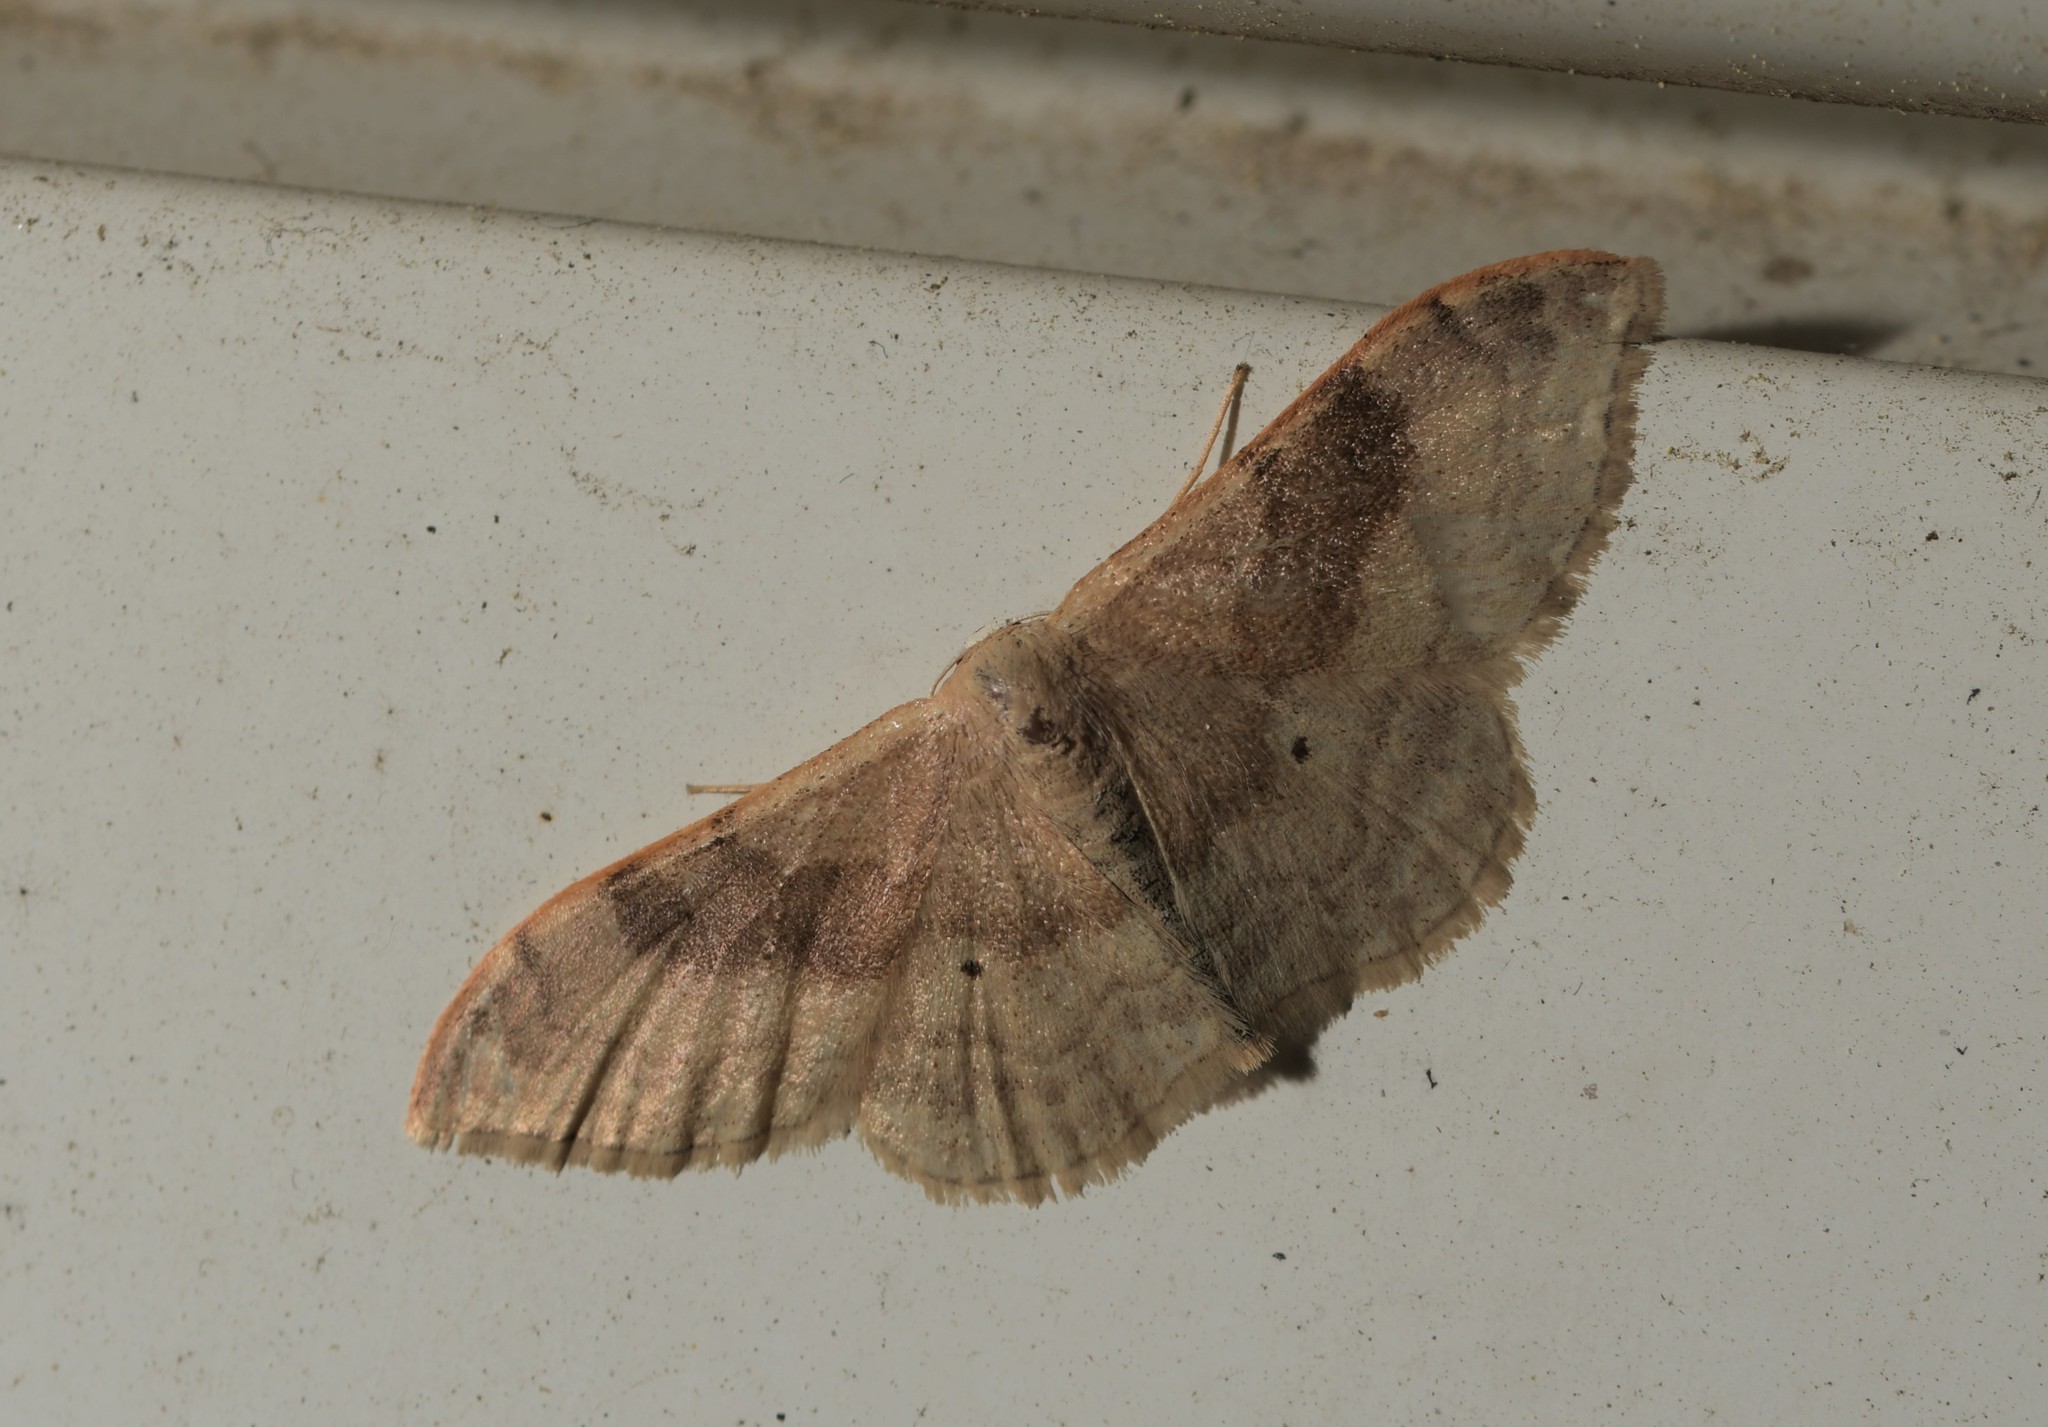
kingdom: Animalia
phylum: Arthropoda
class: Insecta
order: Lepidoptera
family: Geometridae
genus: Idaea
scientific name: Idaea degeneraria
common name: Portland ribbon wave
